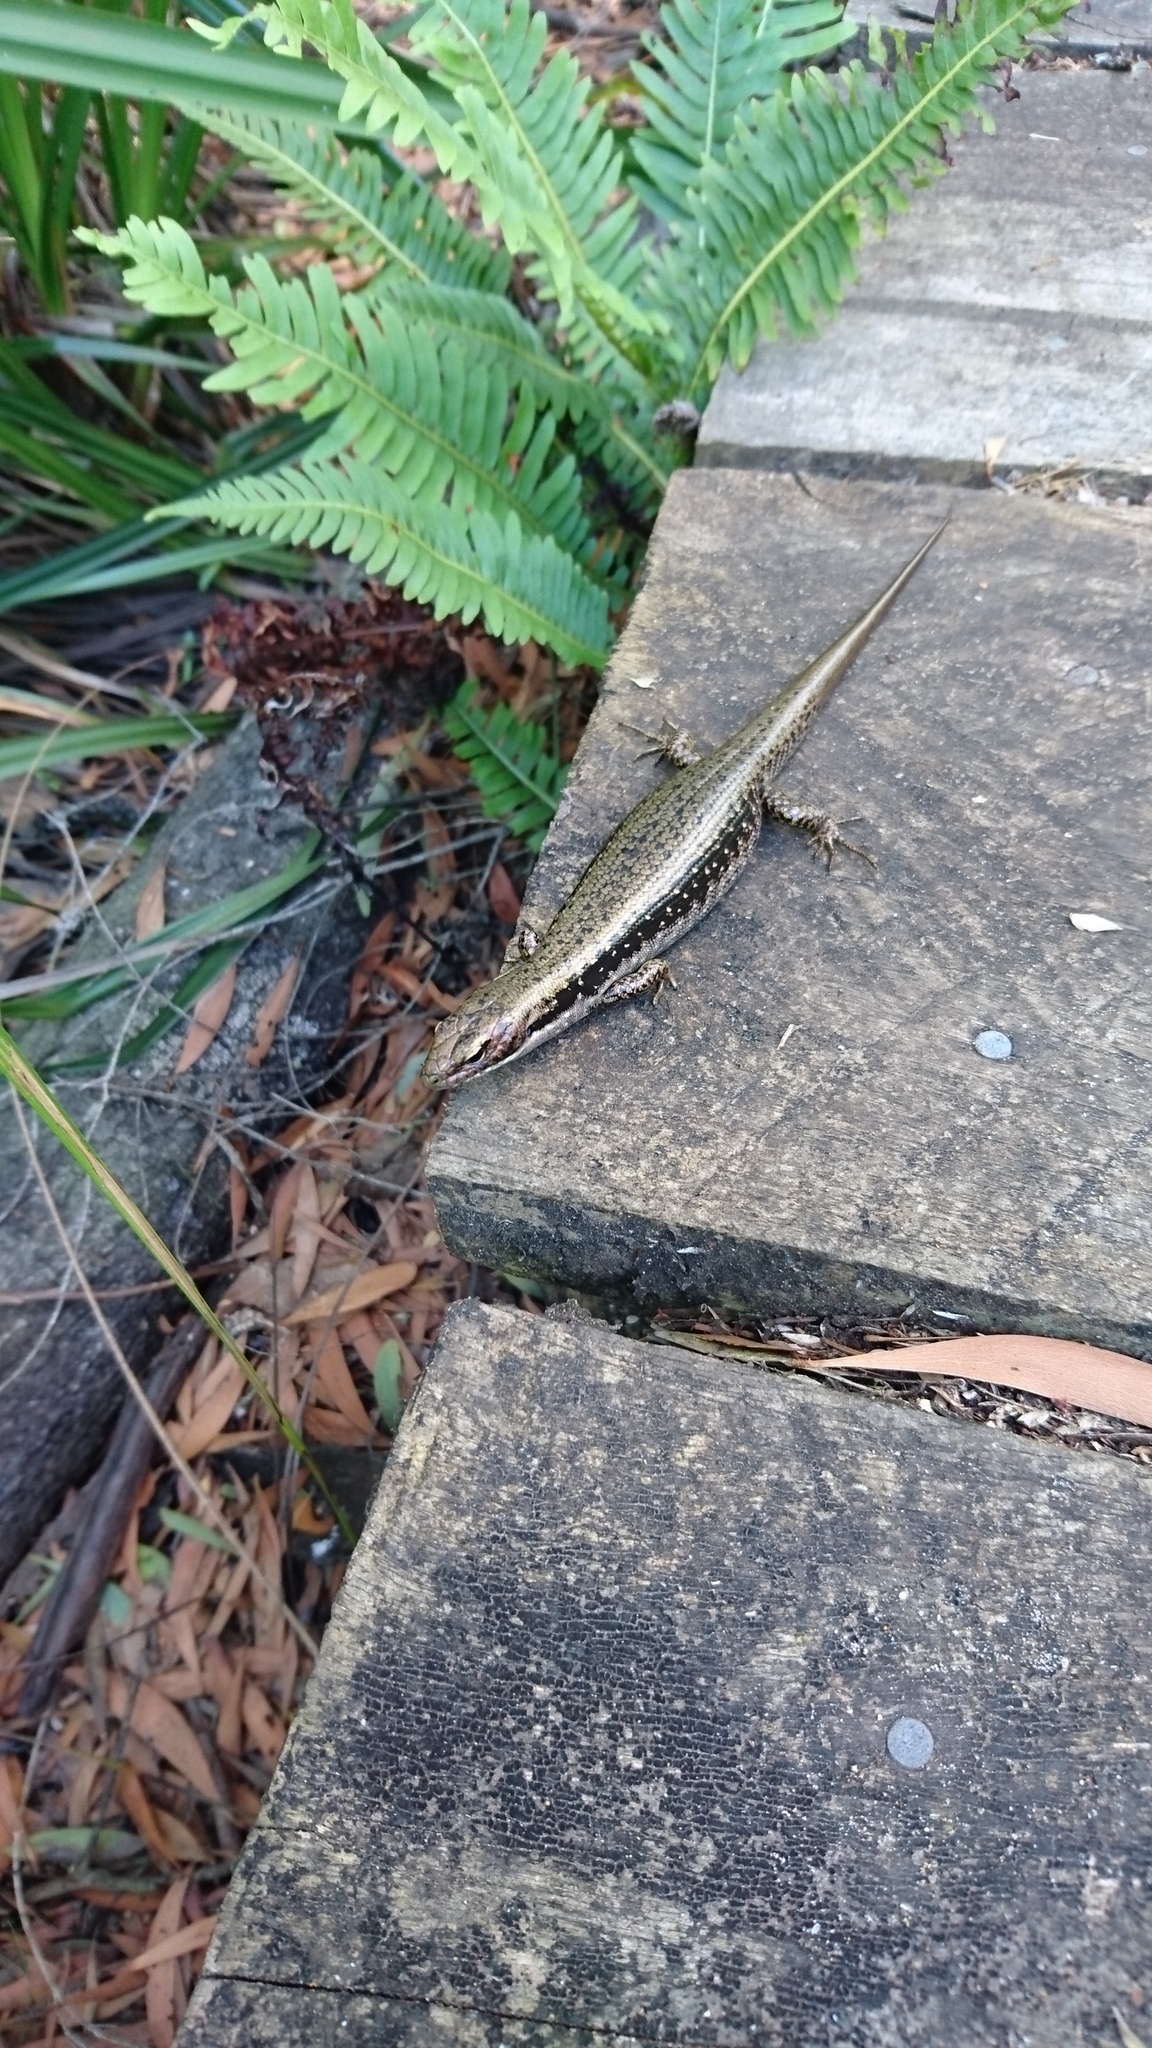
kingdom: Animalia
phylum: Chordata
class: Squamata
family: Scincidae
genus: Eulamprus
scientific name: Eulamprus tympanum
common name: Cool-temperate water-skink
